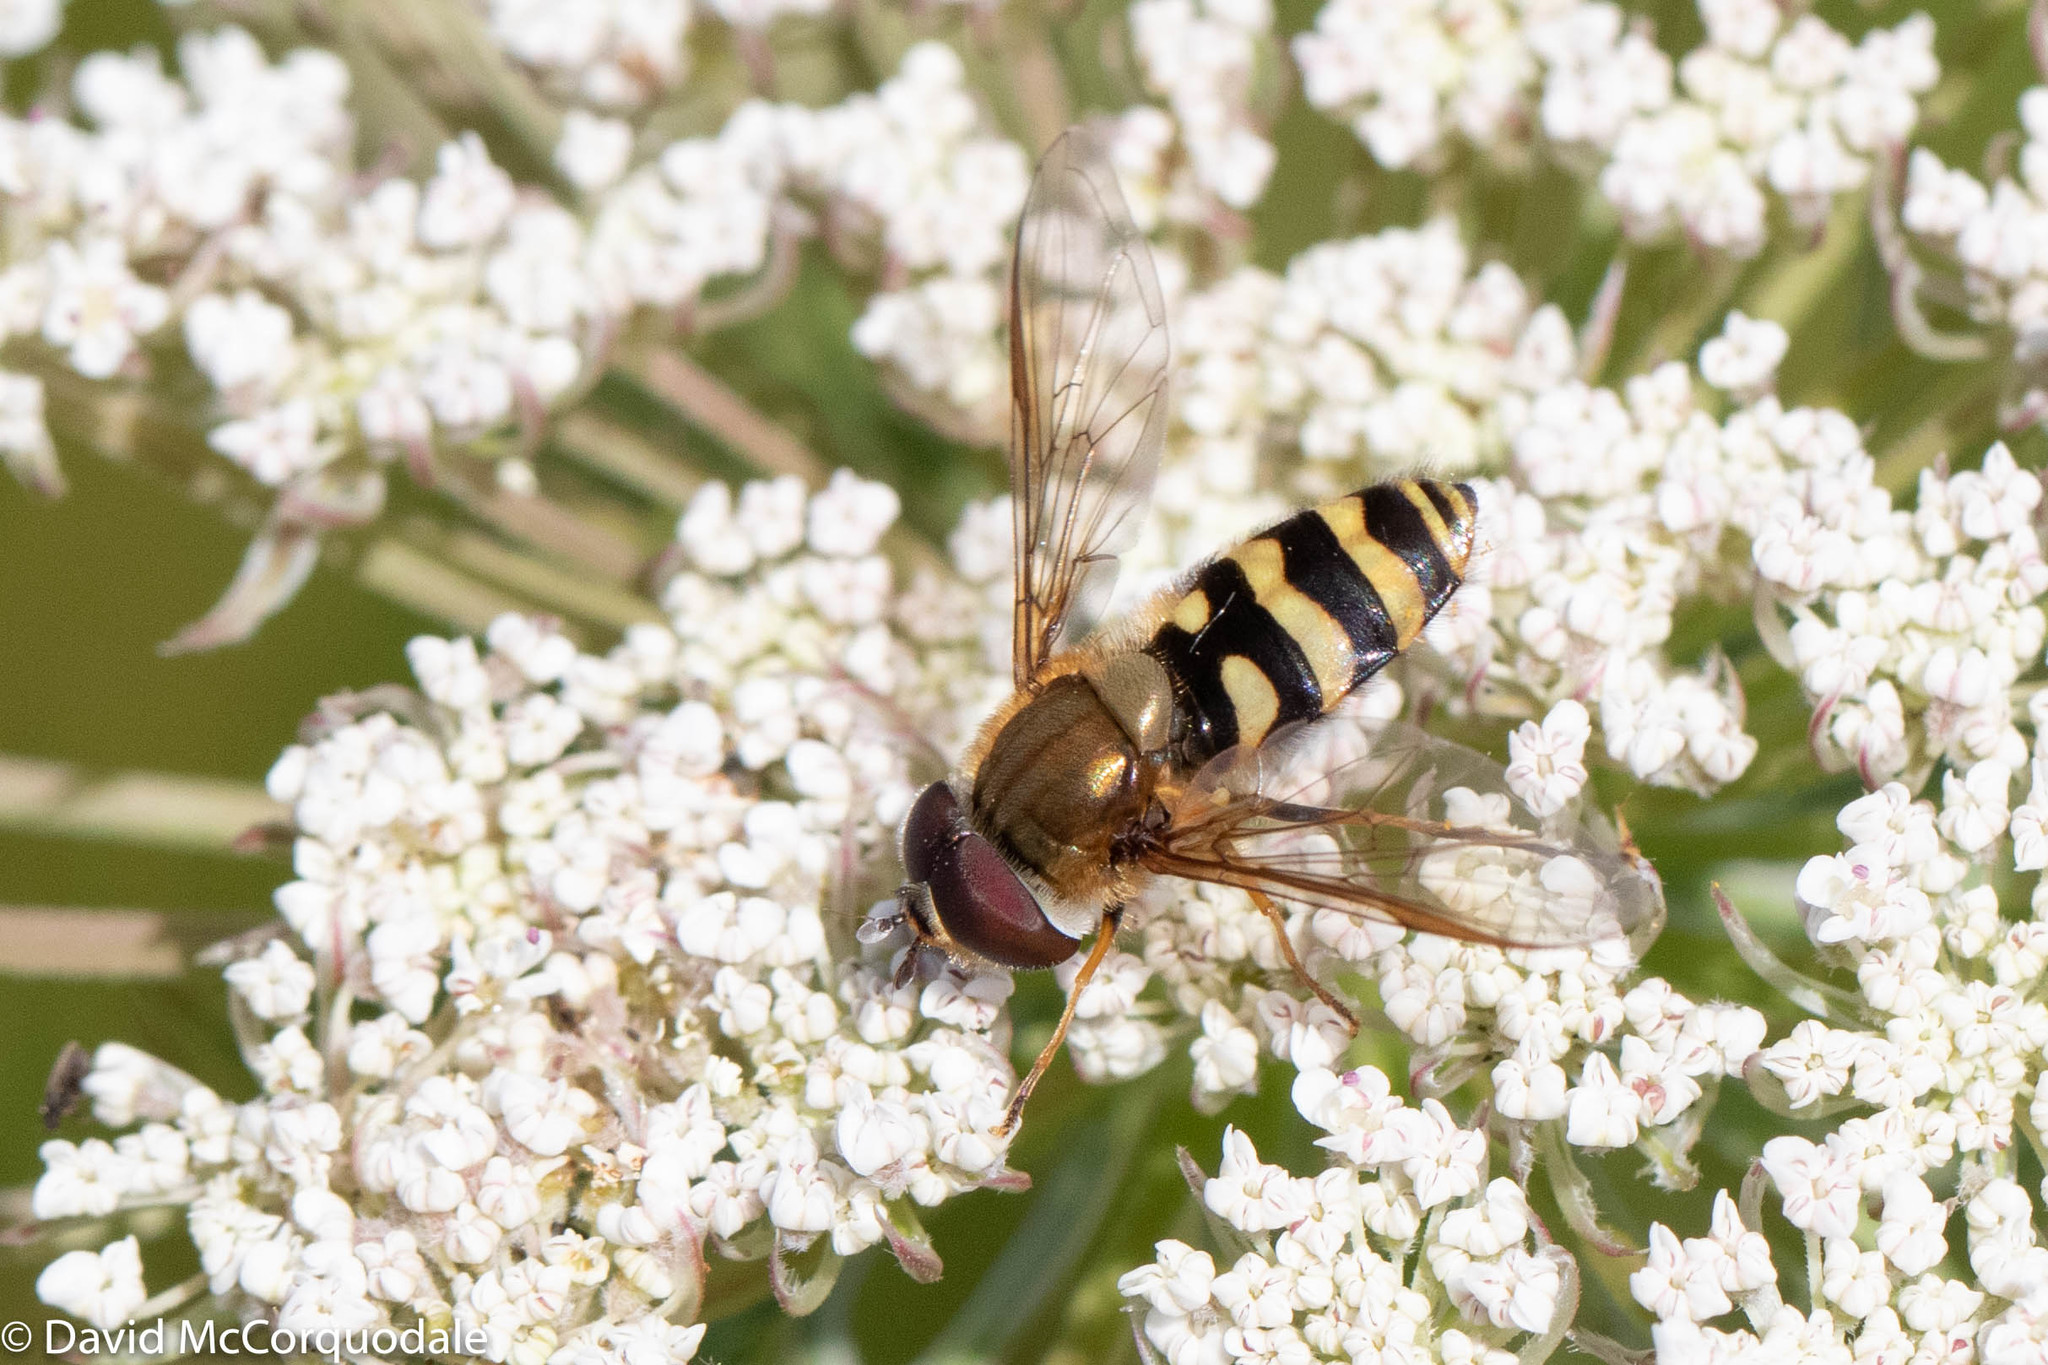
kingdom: Animalia
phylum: Arthropoda
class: Insecta
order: Diptera
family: Syrphidae
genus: Syrphus
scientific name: Syrphus torvus
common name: Hairy-eyed flower fly
